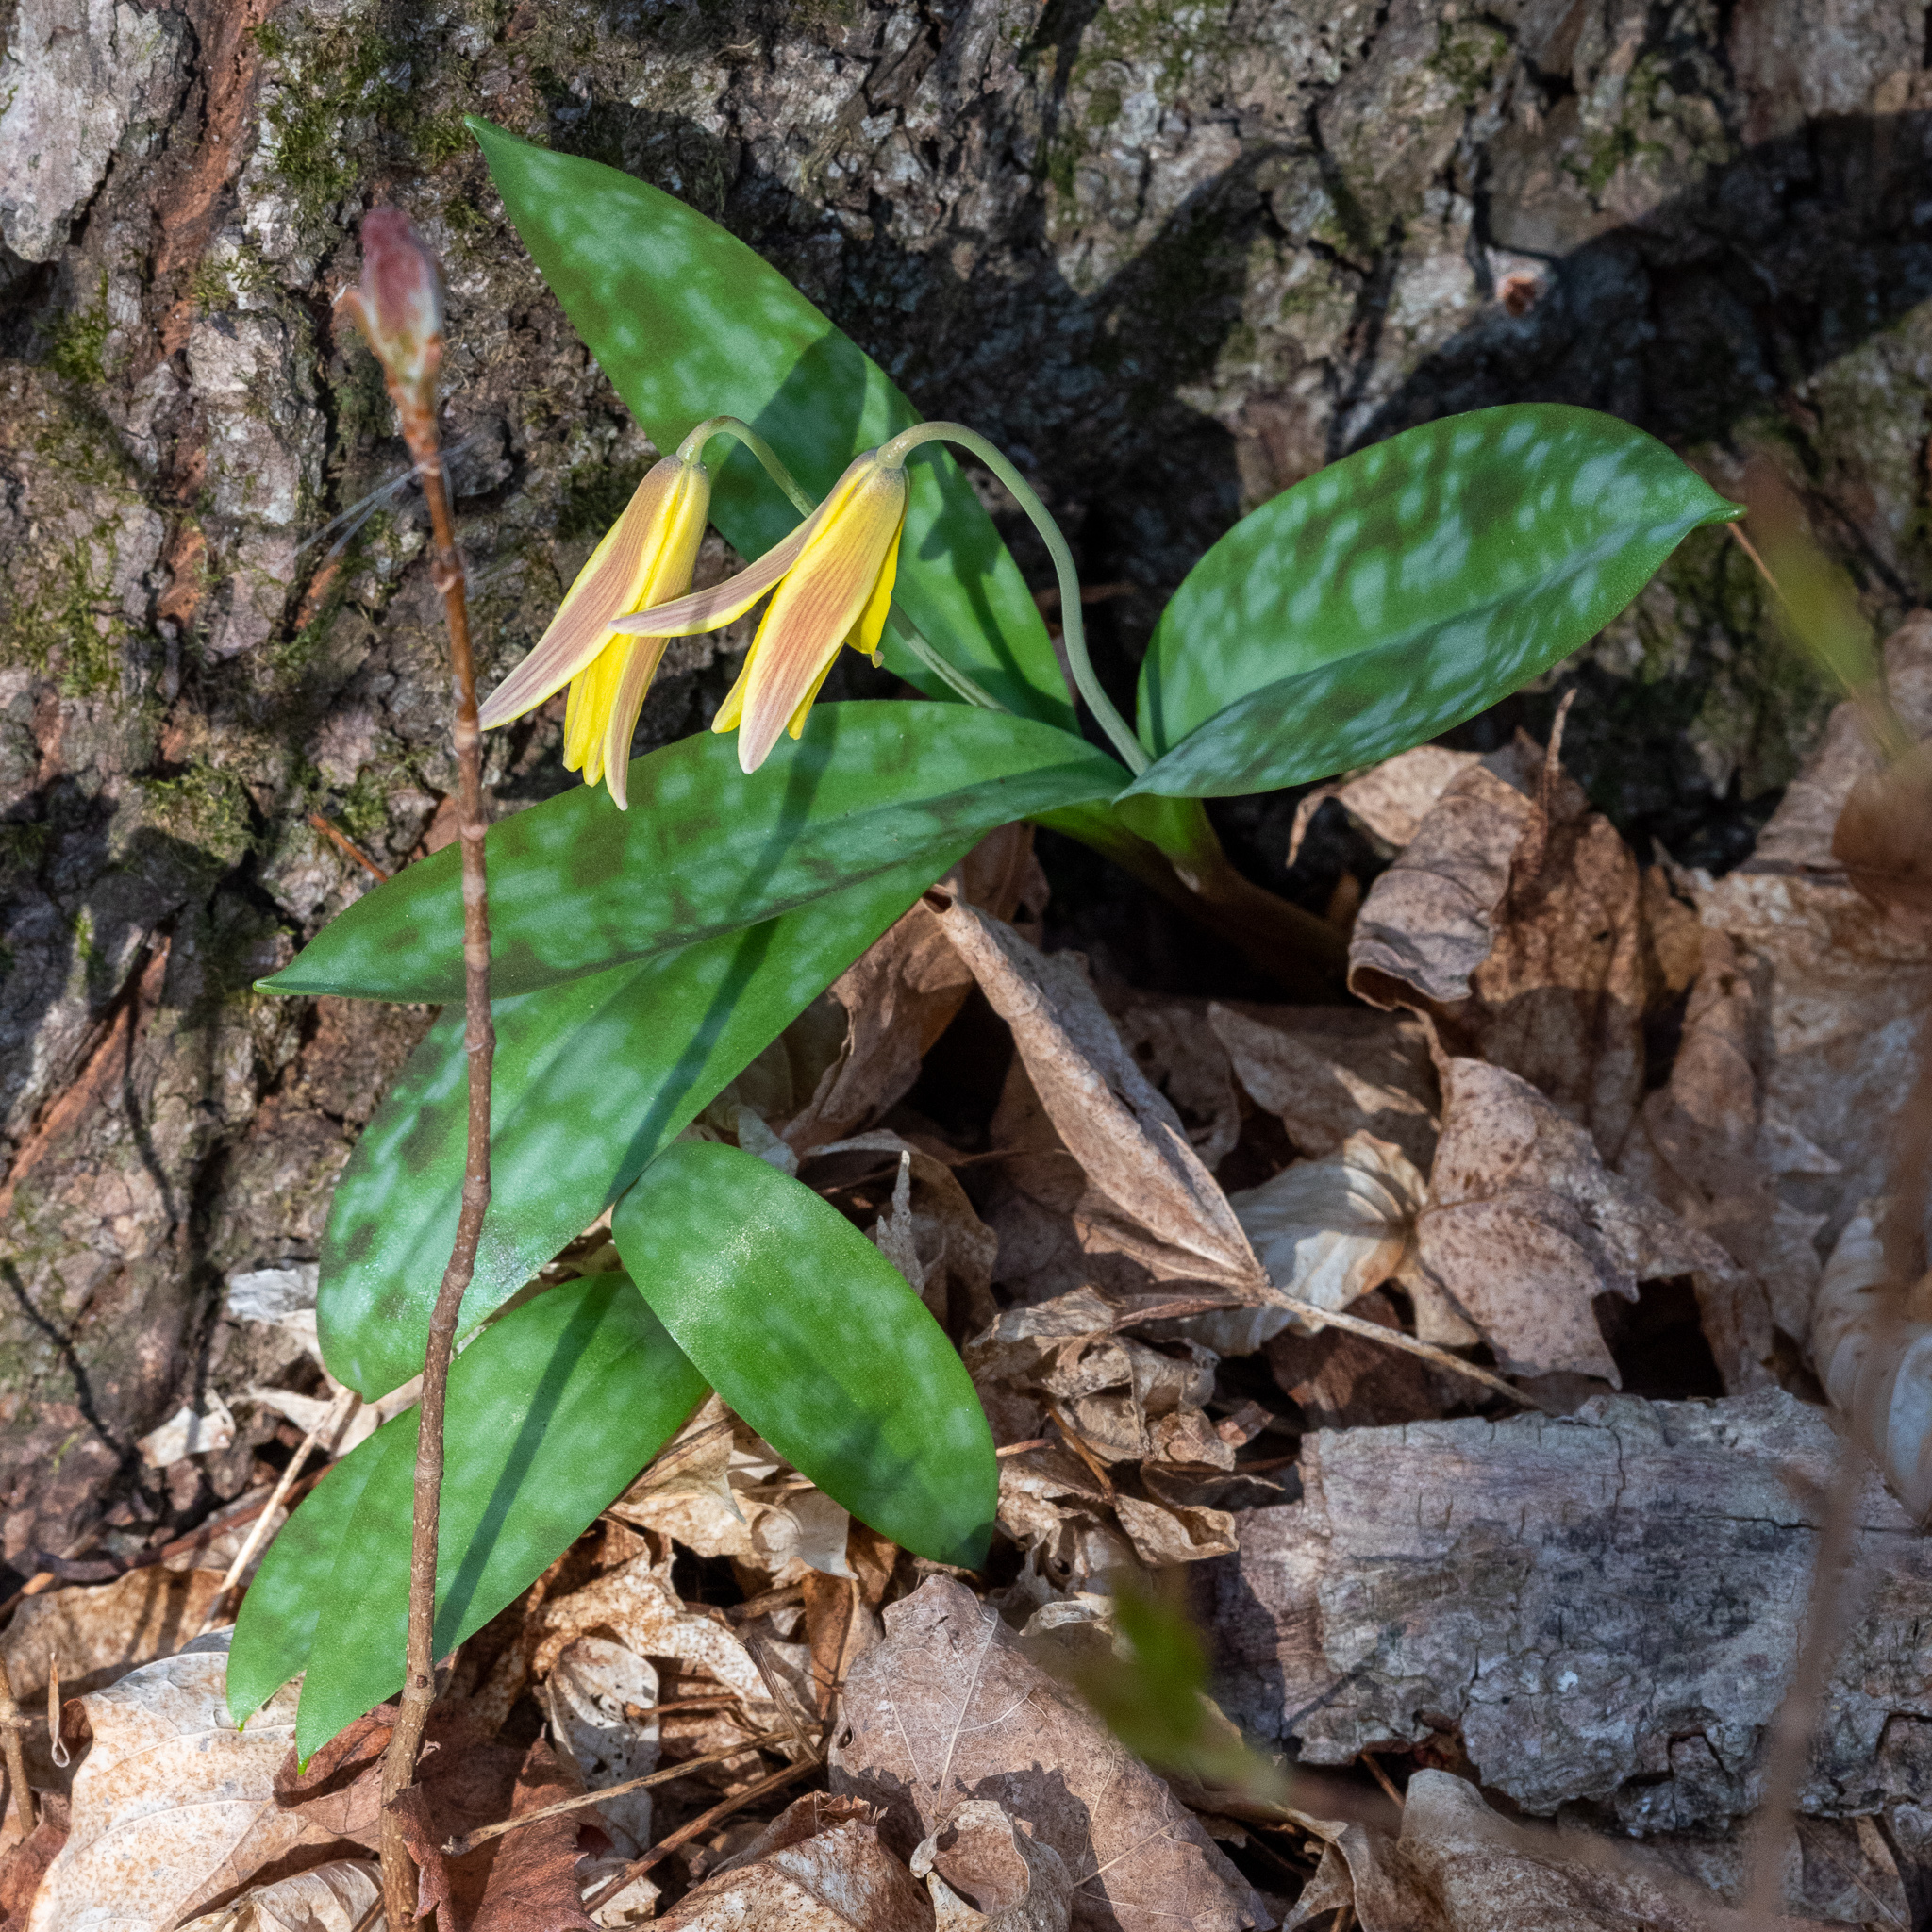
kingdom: Plantae
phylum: Tracheophyta
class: Liliopsida
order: Liliales
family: Liliaceae
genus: Erythronium
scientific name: Erythronium americanum
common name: Yellow adder's-tongue
